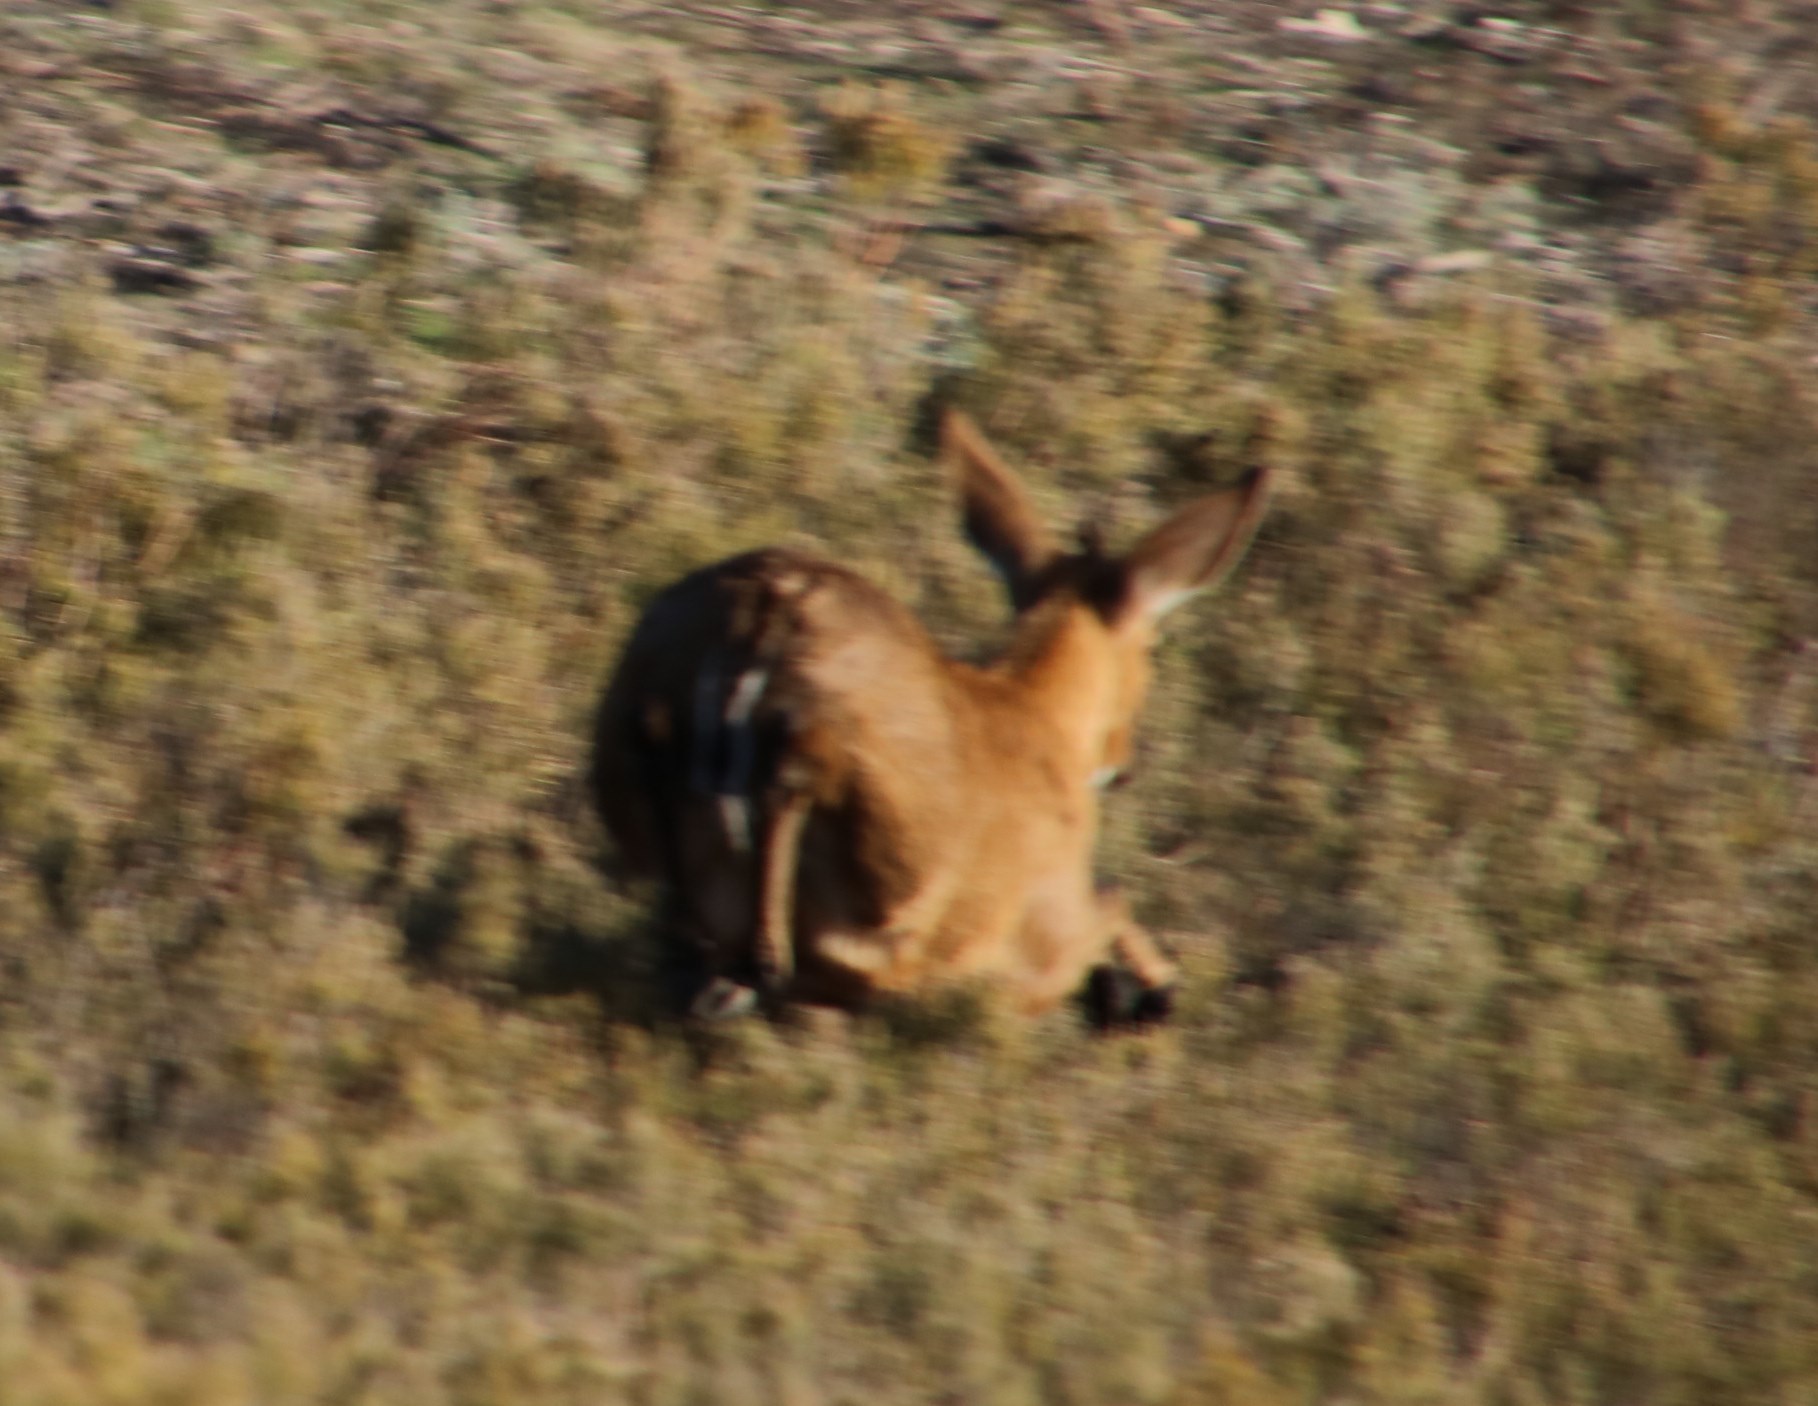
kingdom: Animalia
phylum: Chordata
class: Mammalia
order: Artiodactyla
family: Bovidae
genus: Sylvicapra
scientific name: Sylvicapra grimmia
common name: Bush duiker
